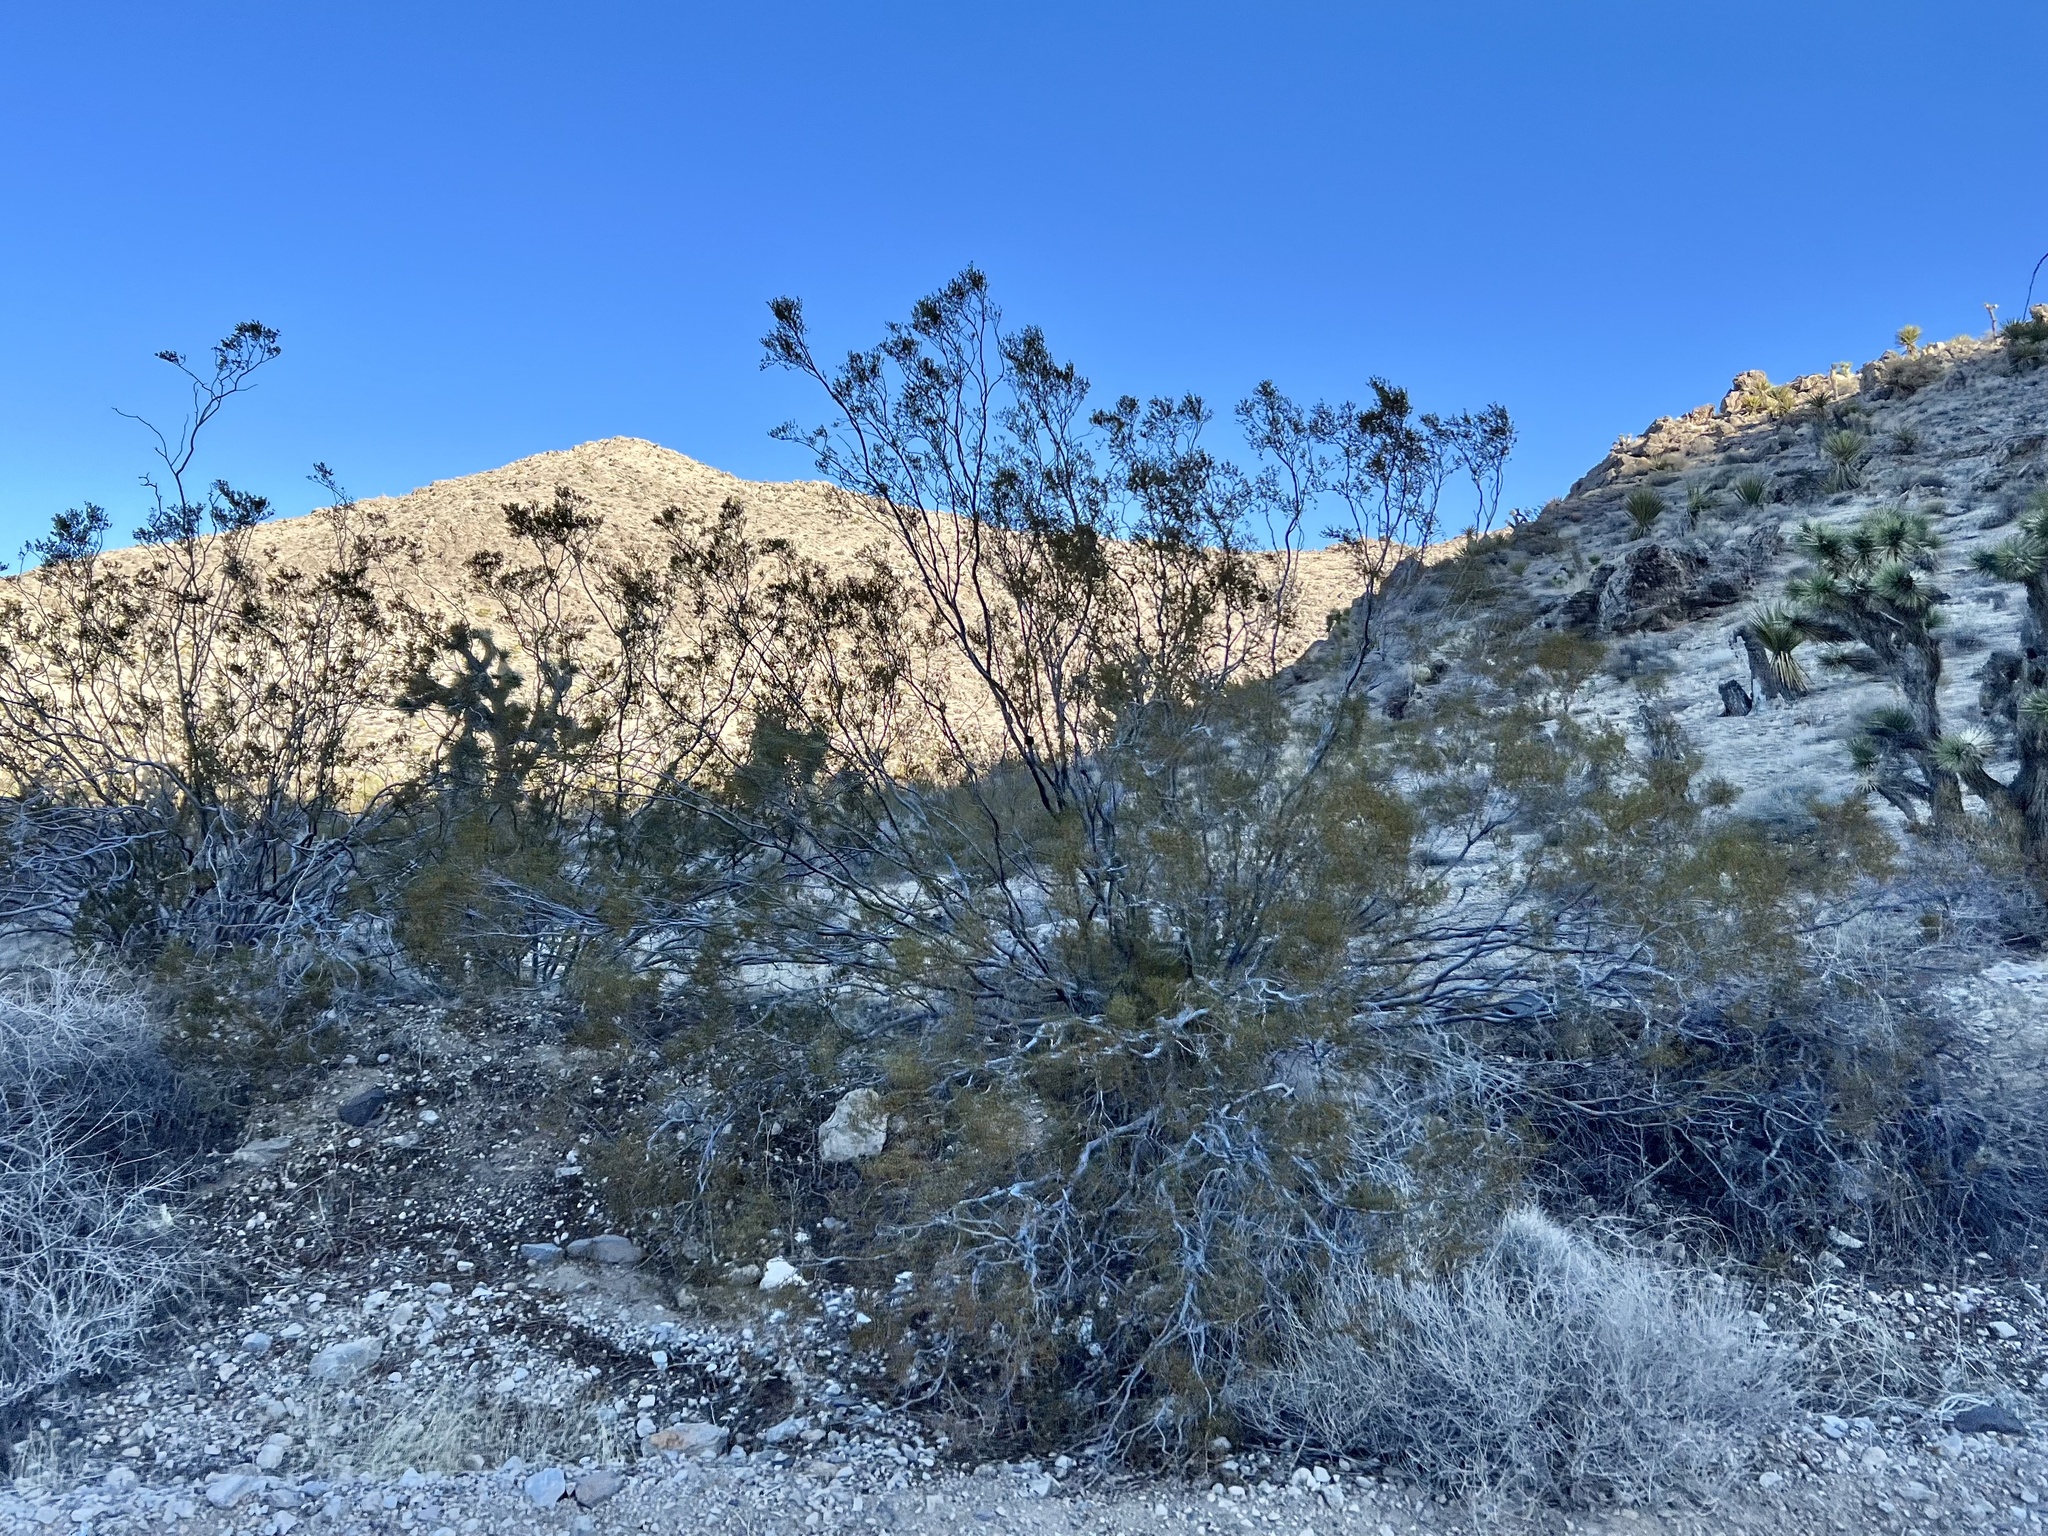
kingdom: Plantae
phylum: Tracheophyta
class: Magnoliopsida
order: Zygophyllales
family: Zygophyllaceae
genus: Larrea
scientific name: Larrea tridentata
